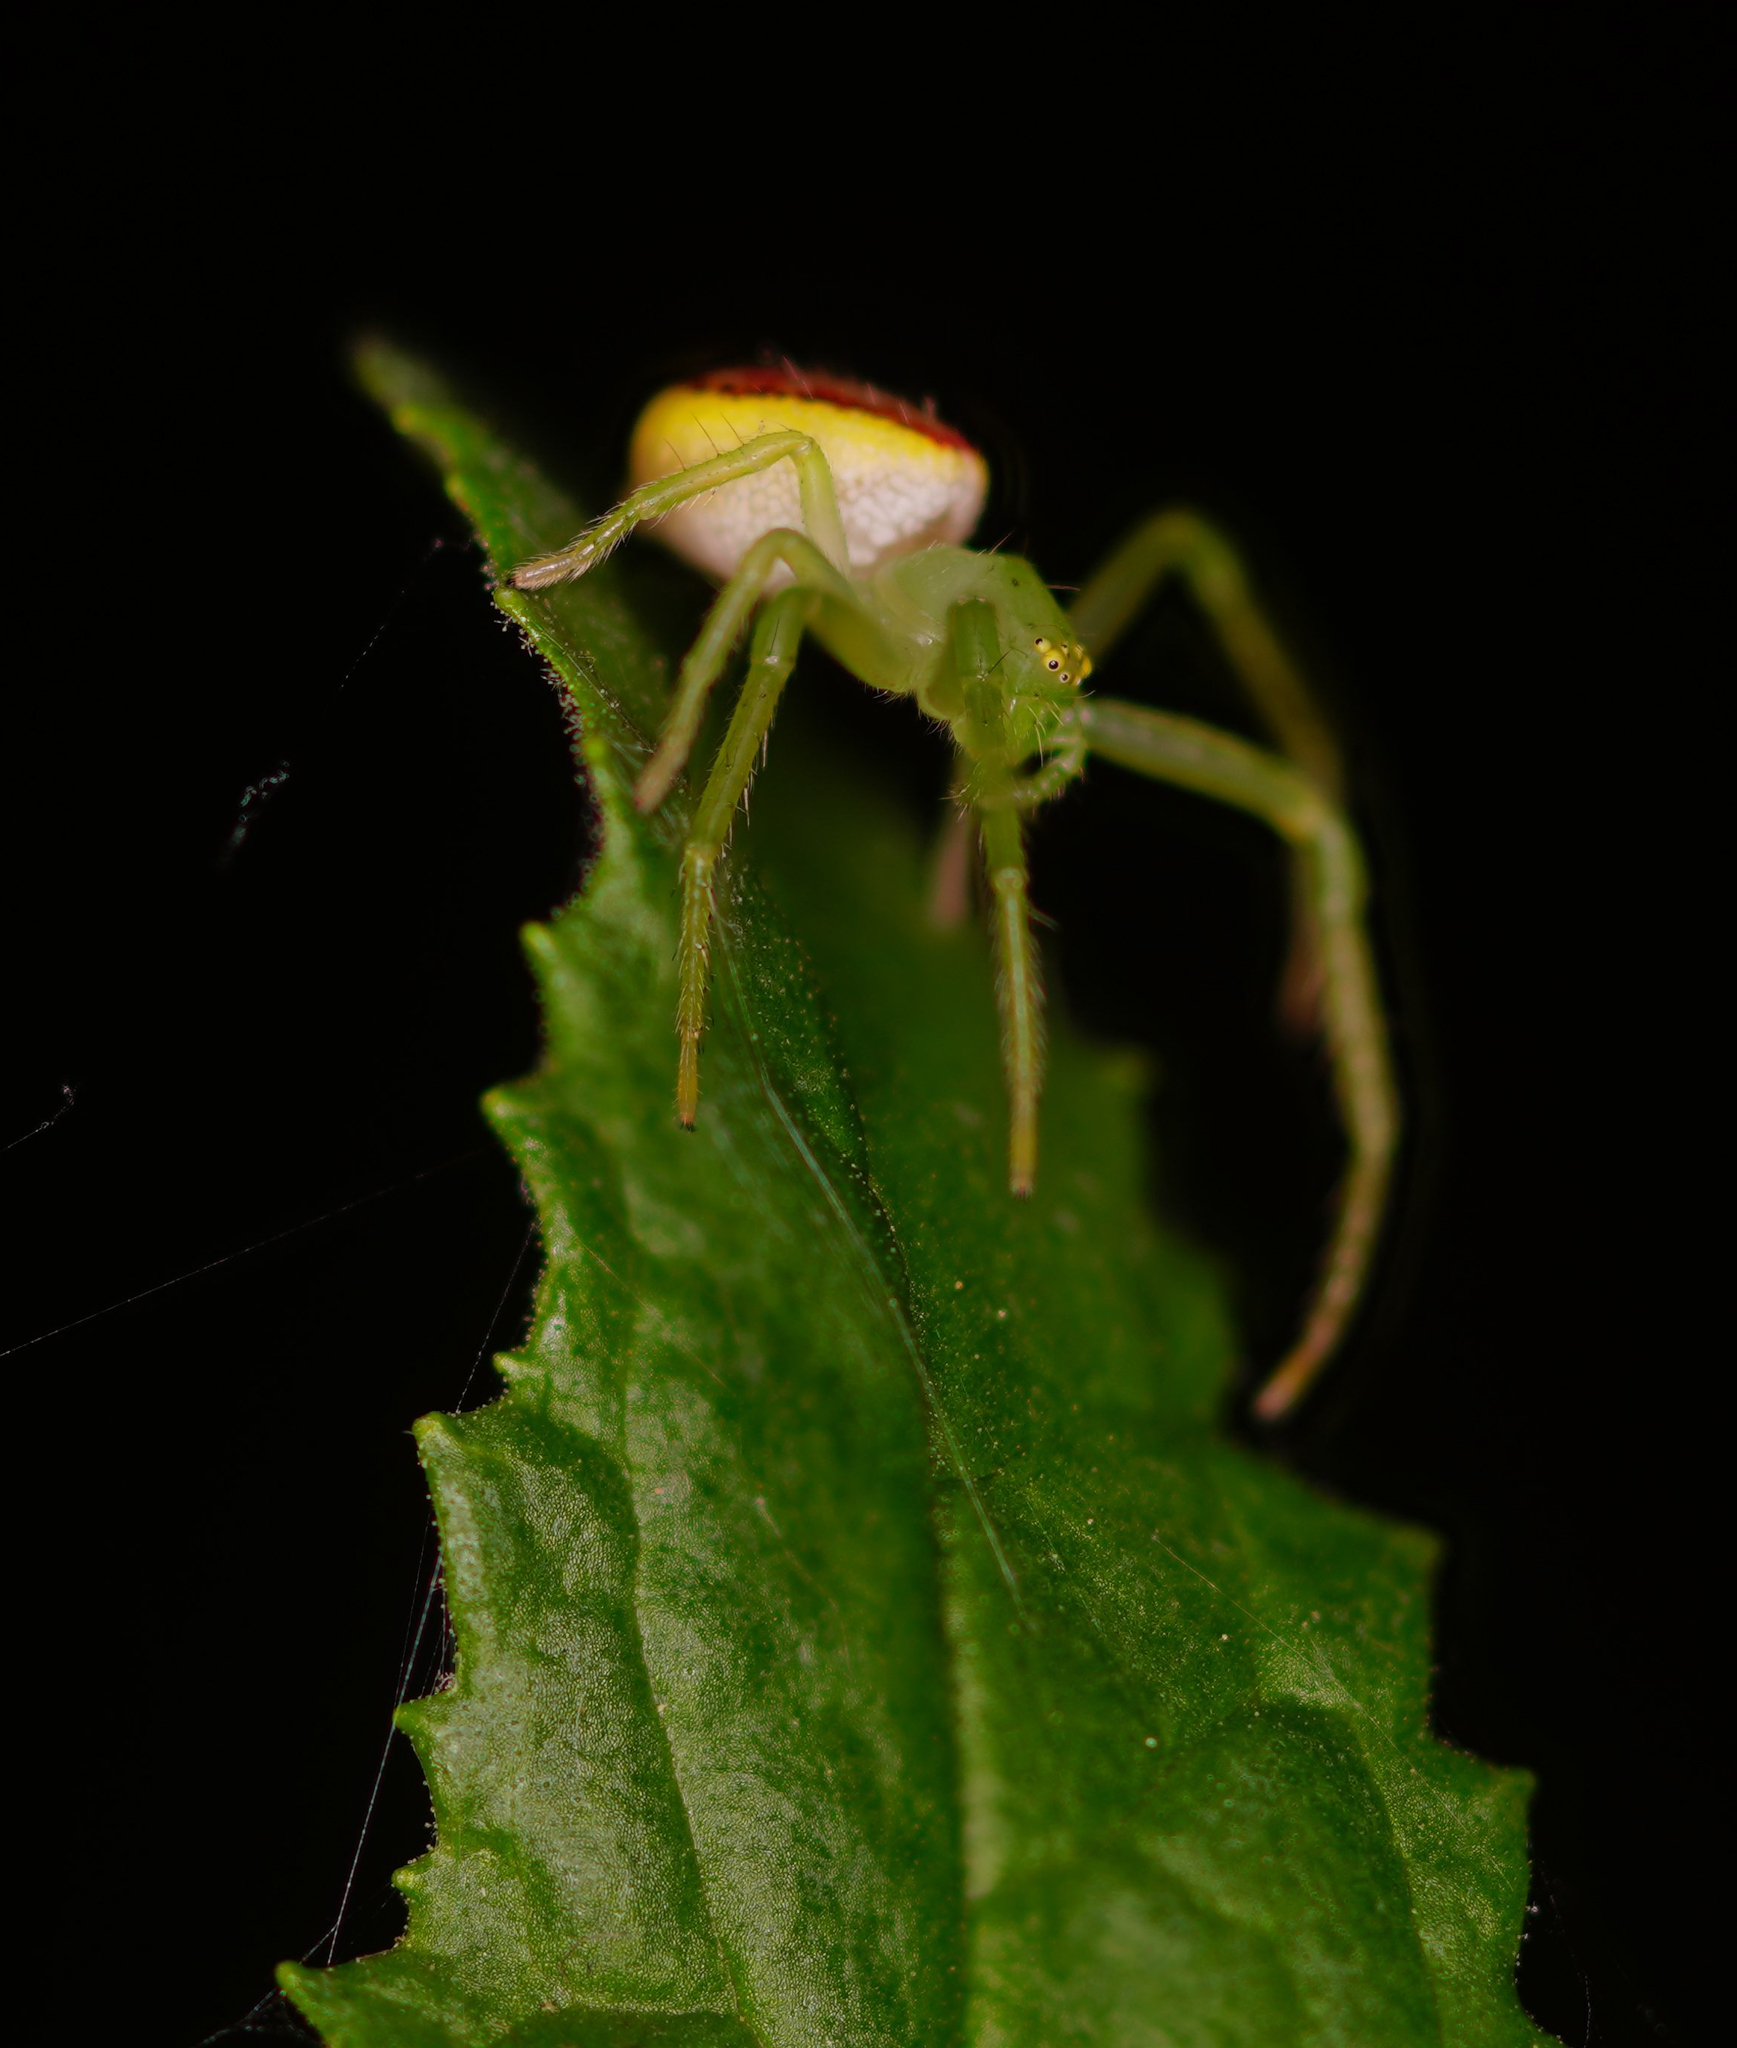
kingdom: Animalia
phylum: Arthropoda
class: Arachnida
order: Araneae
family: Thomisidae
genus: Diaea
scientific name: Diaea livens
